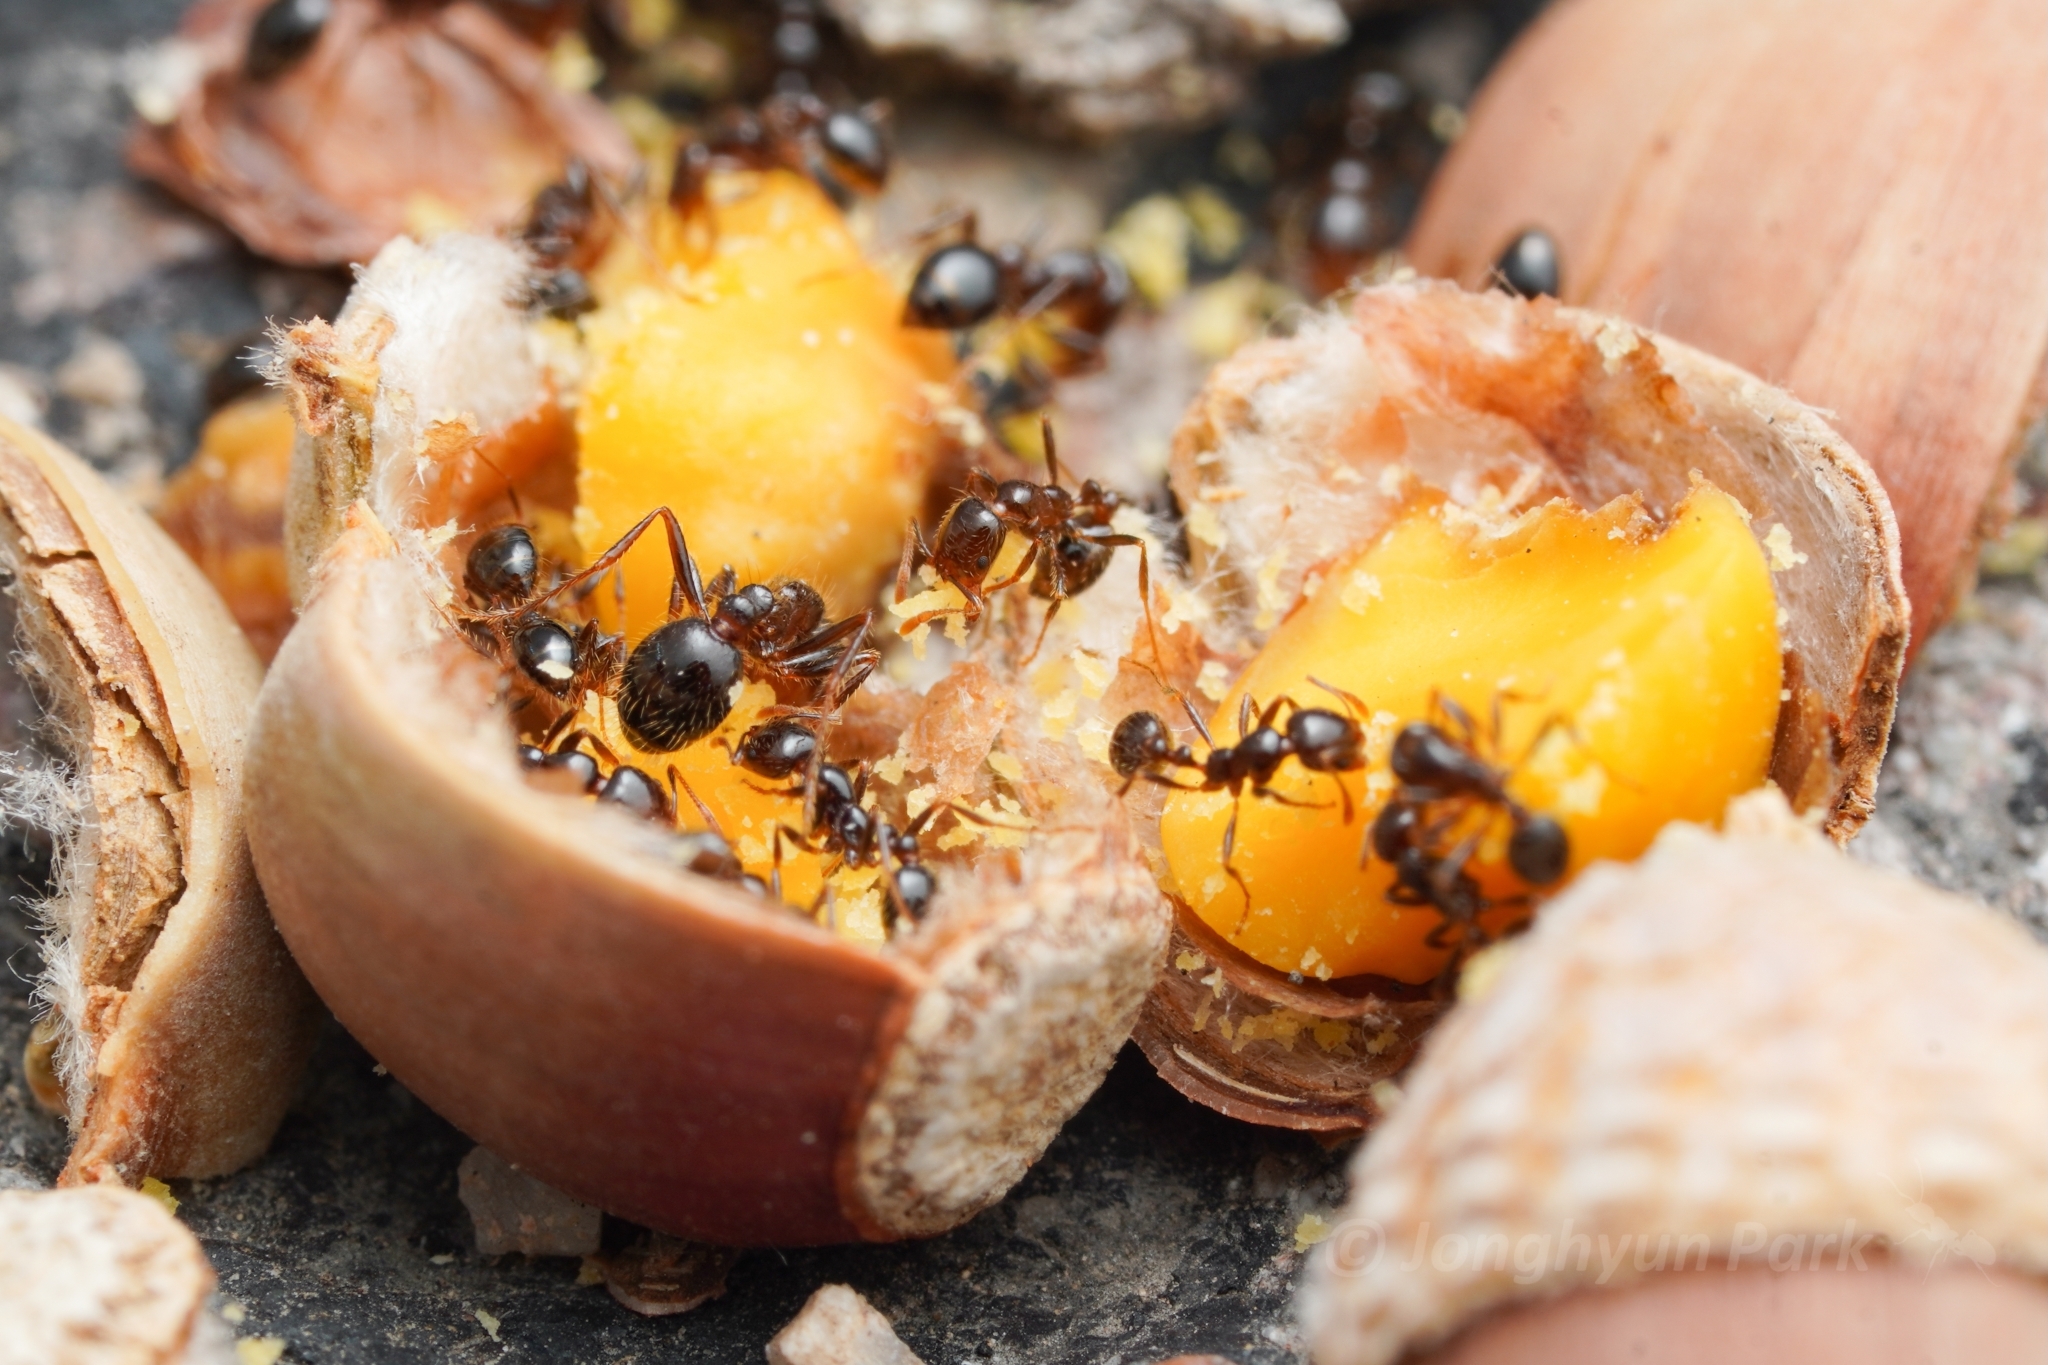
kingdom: Animalia
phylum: Arthropoda
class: Insecta
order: Hymenoptera
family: Formicidae
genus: Solenopsis
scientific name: Solenopsis xyloni
